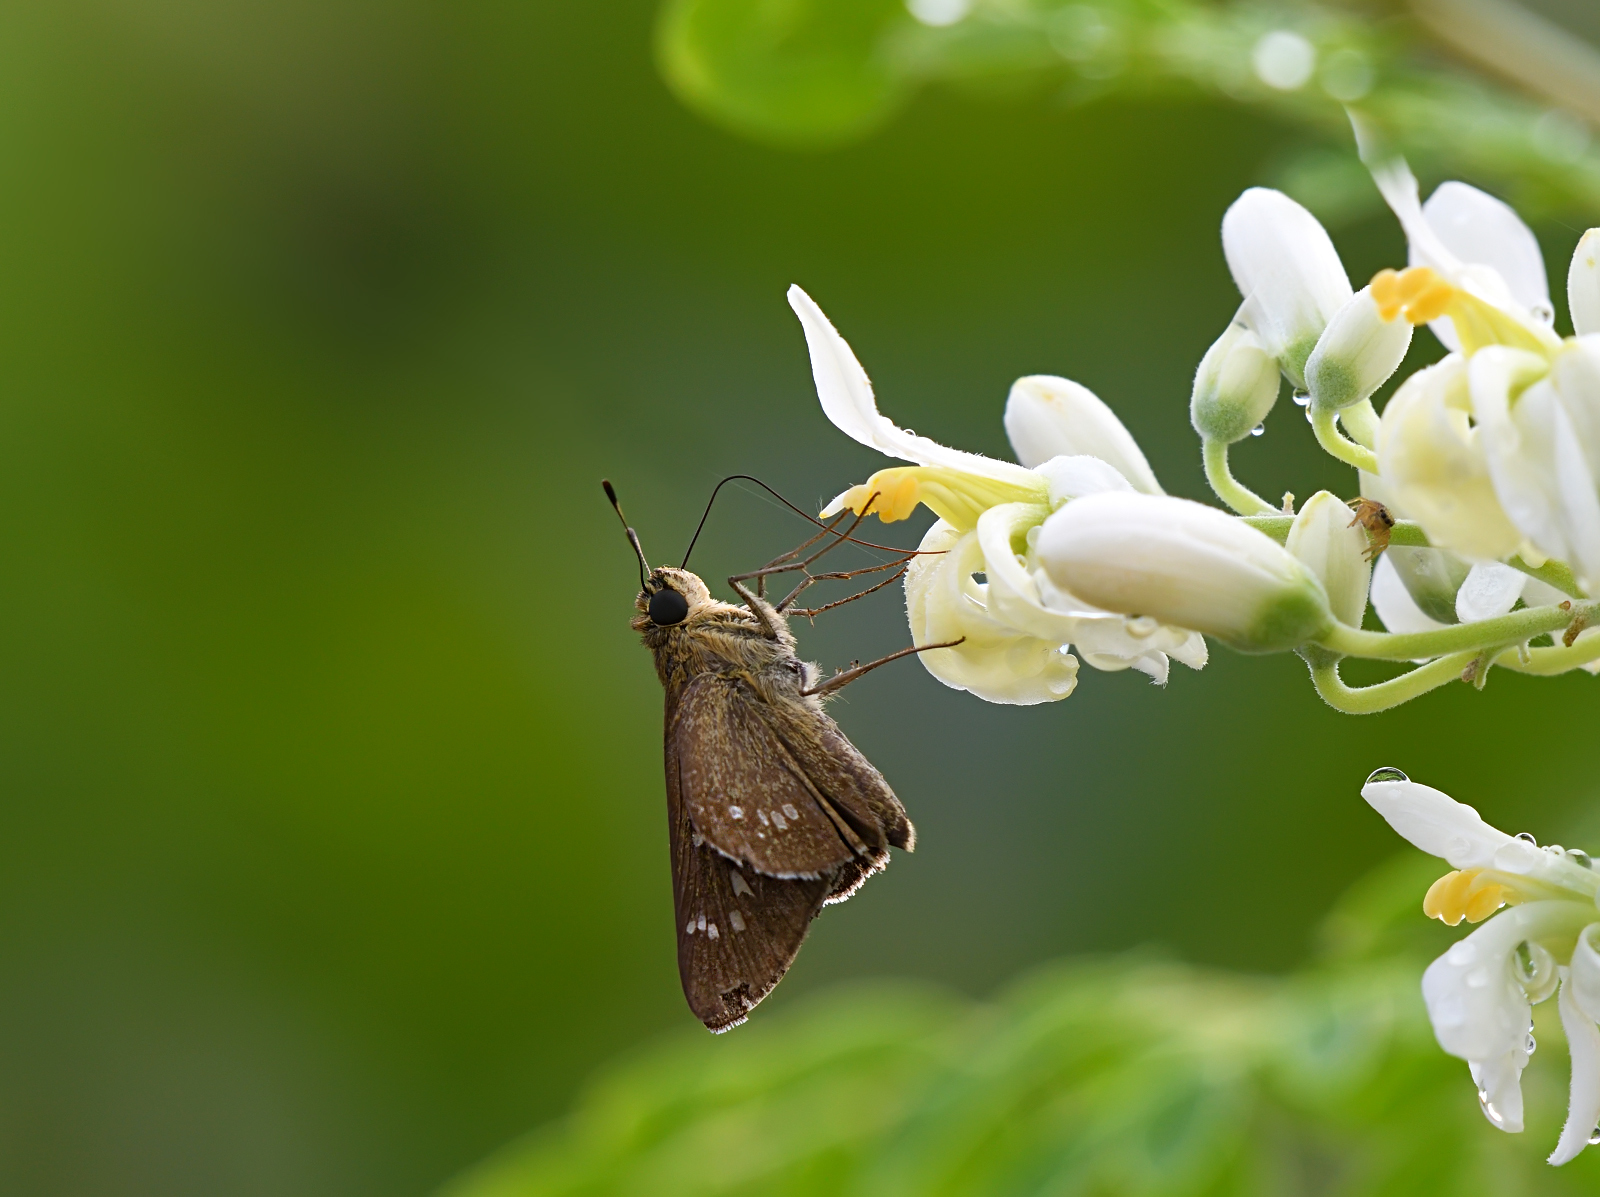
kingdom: Animalia
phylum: Arthropoda
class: Insecta
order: Lepidoptera
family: Hesperiidae
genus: Pelopidas
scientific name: Pelopidas mathias
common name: Black-branded swift
